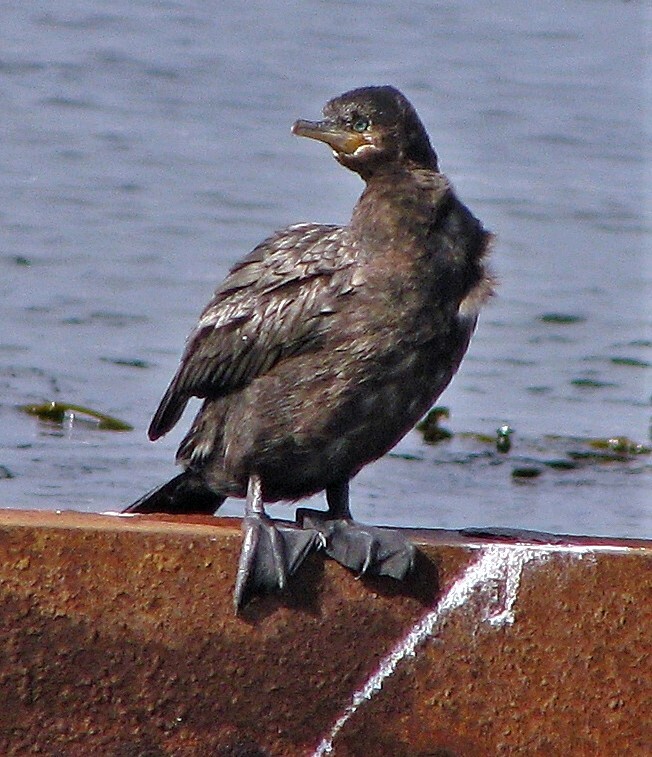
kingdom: Animalia
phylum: Chordata
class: Aves
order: Suliformes
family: Phalacrocoracidae
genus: Phalacrocorax
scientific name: Phalacrocorax brasilianus
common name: Neotropic cormorant
